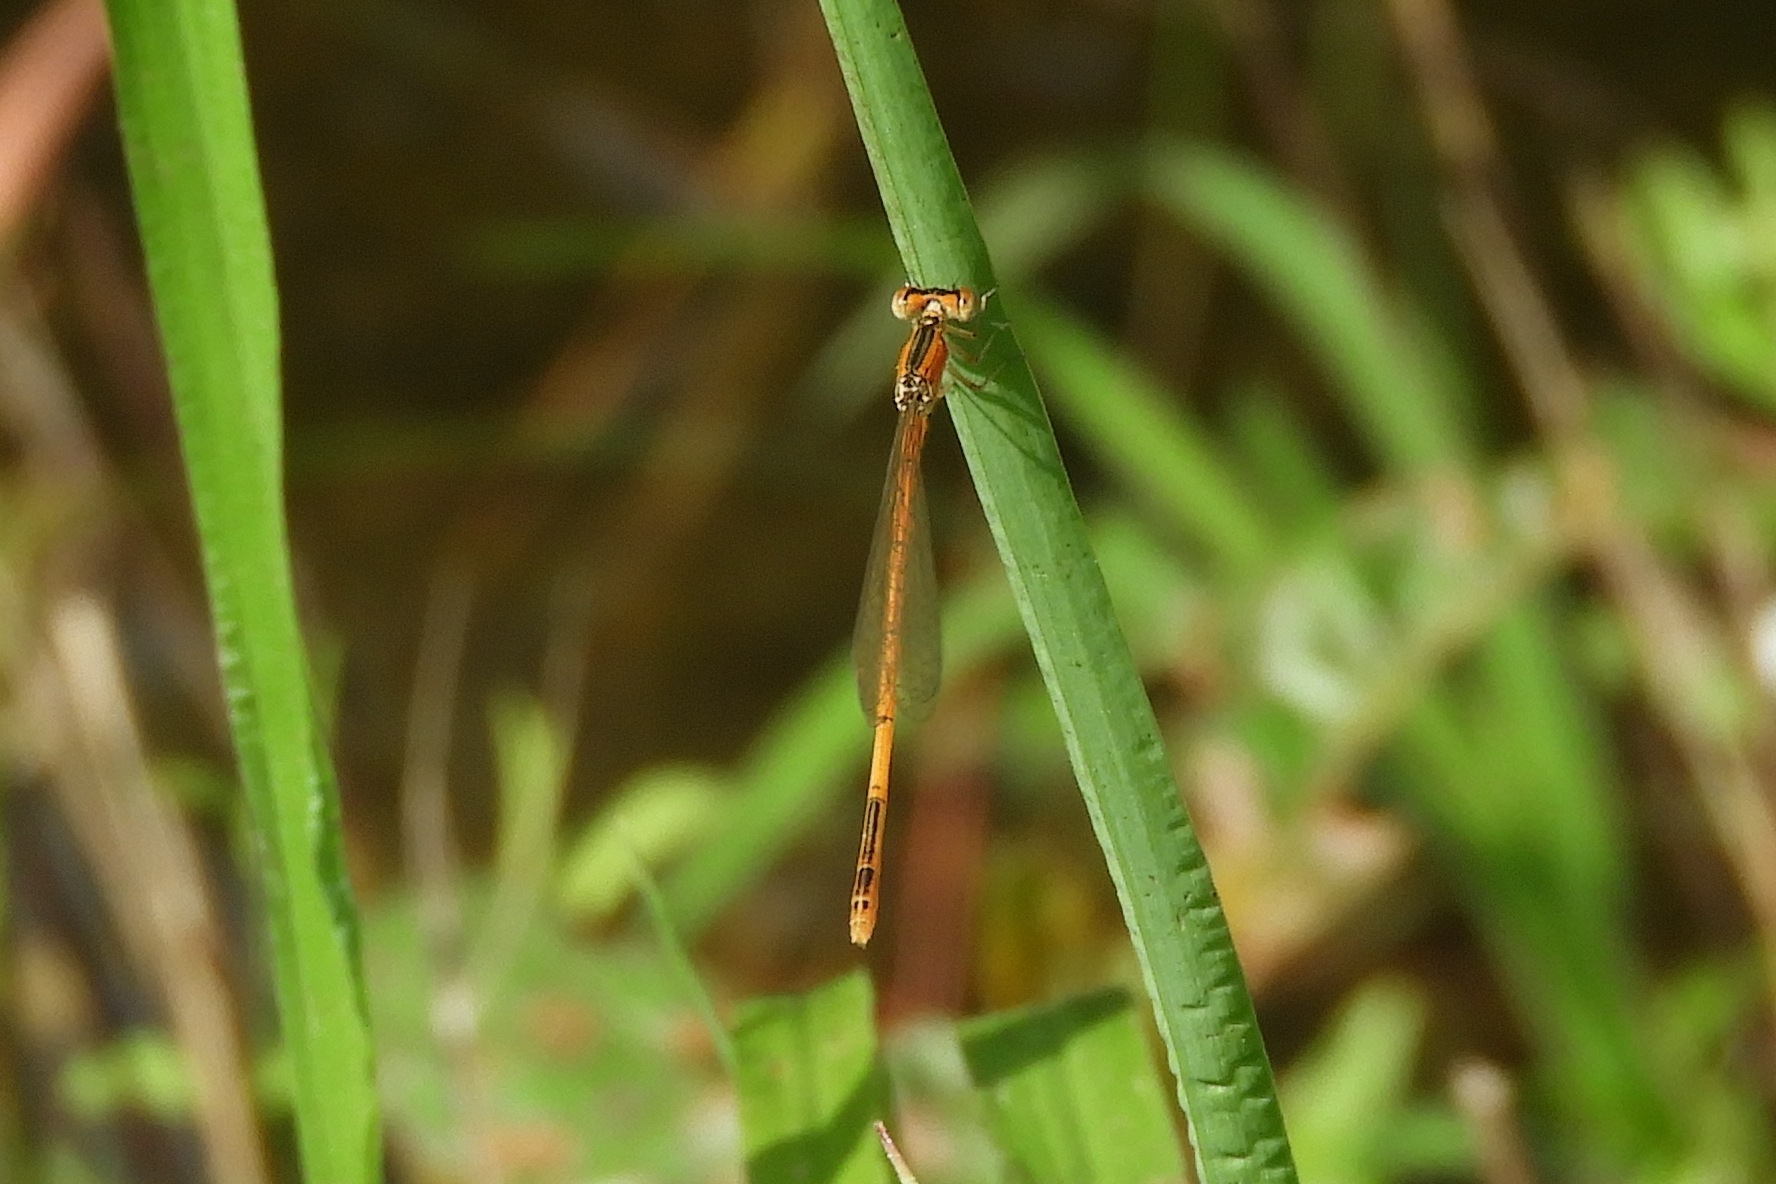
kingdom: Animalia
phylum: Arthropoda
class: Insecta
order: Odonata
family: Coenagrionidae
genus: Ischnura
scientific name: Ischnura hastata
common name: Citrine forktail
